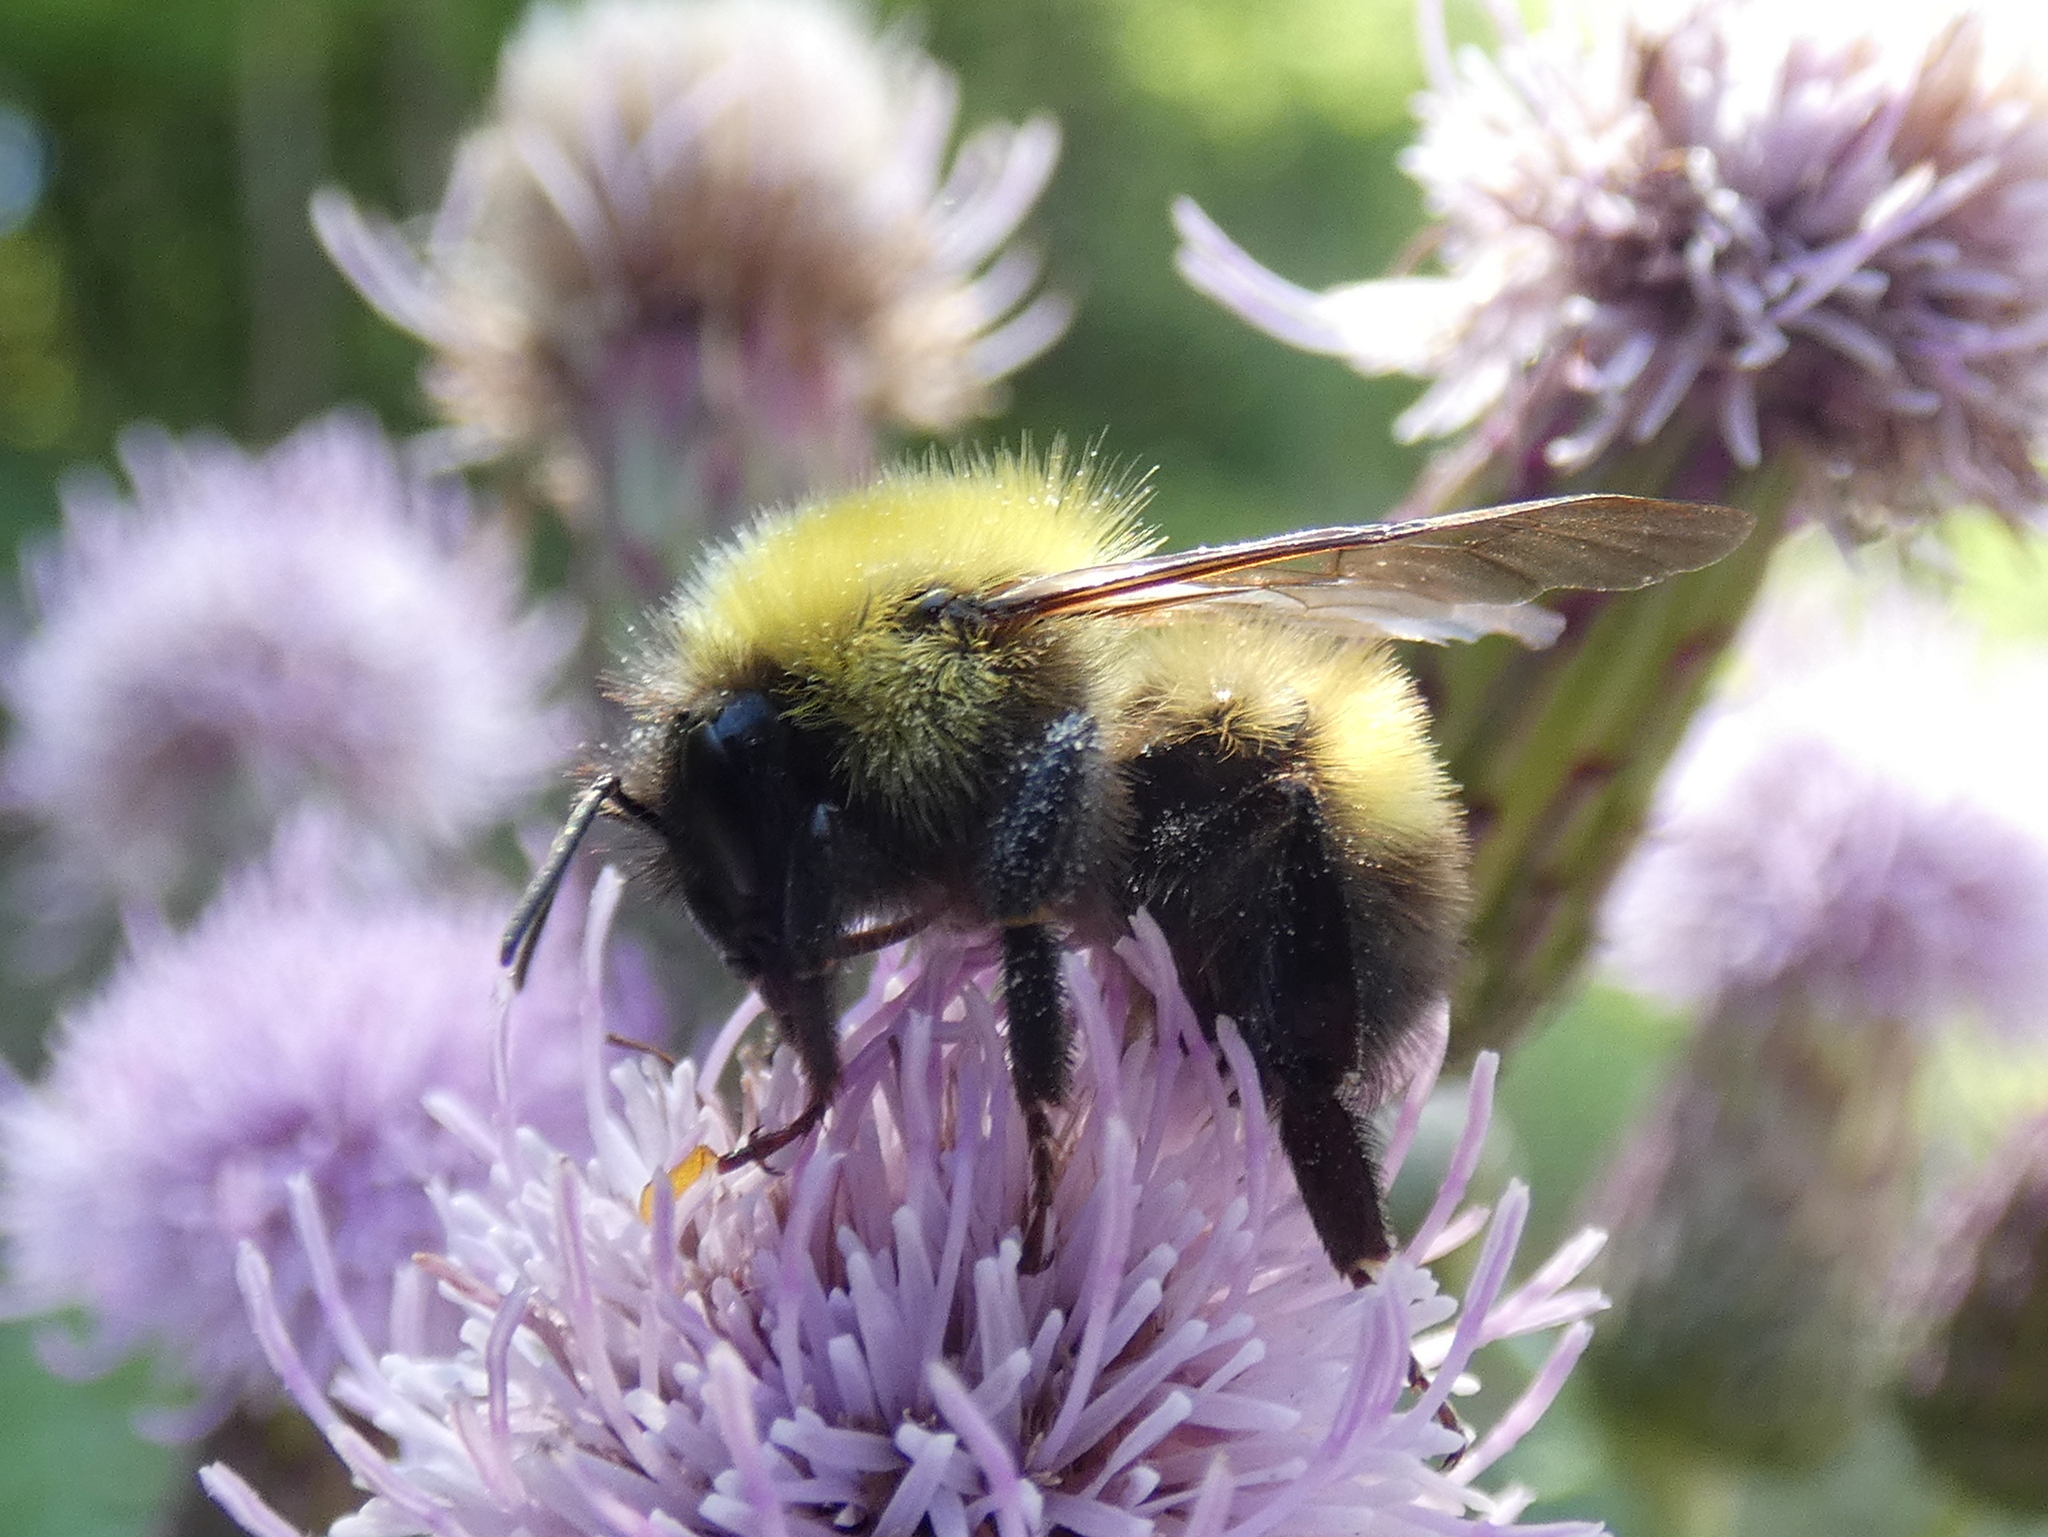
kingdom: Animalia
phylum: Arthropoda
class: Insecta
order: Hymenoptera
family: Apidae
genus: Bombus
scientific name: Bombus perplexus
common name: Confusing bumble bee
